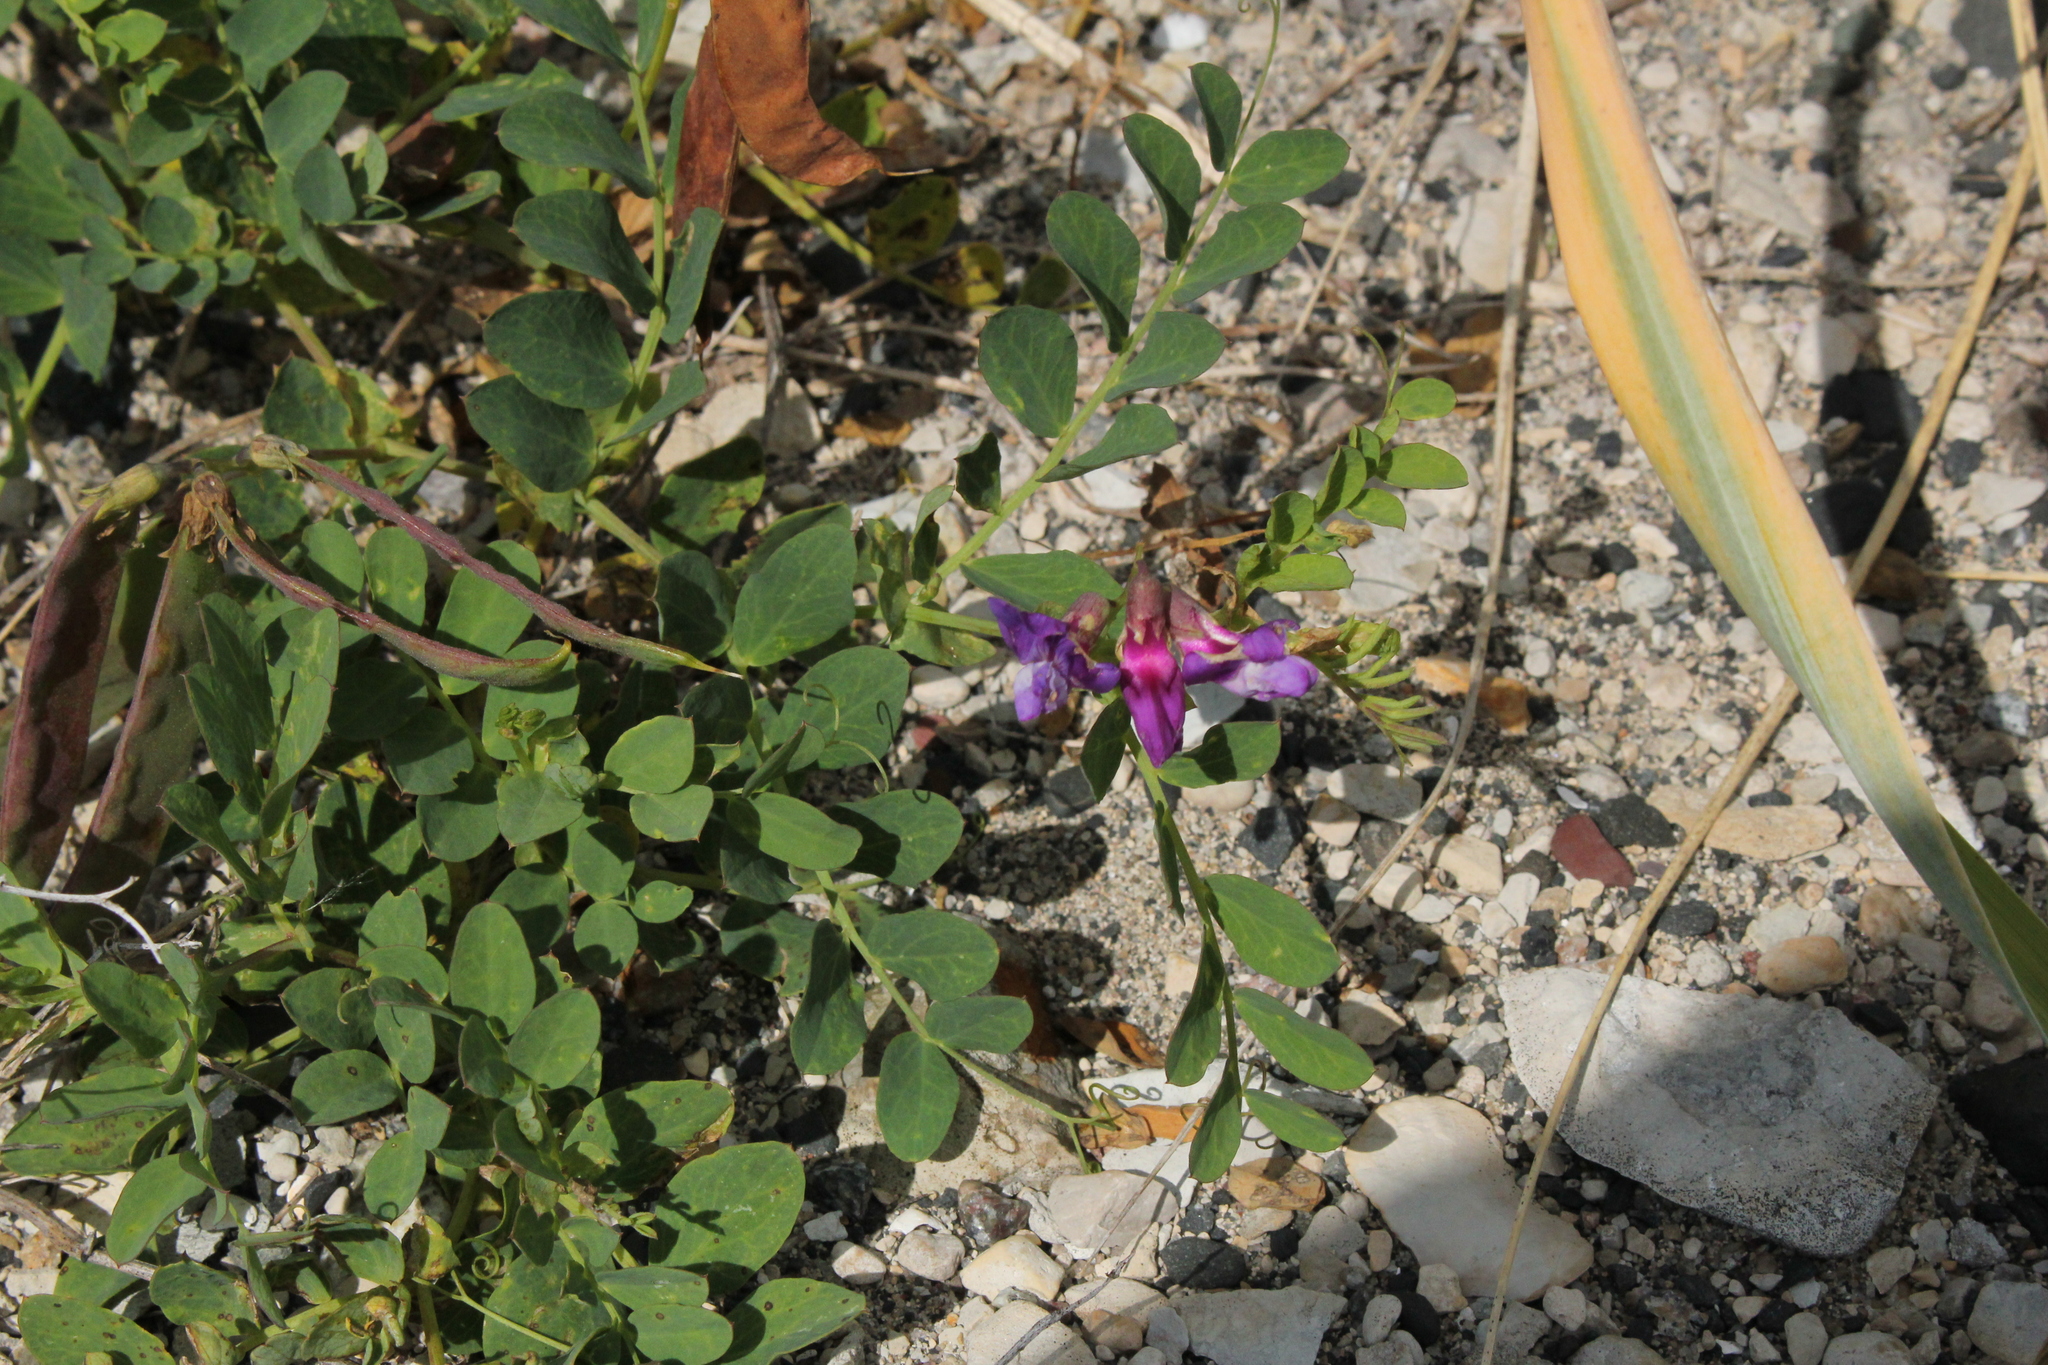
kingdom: Plantae
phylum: Tracheophyta
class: Magnoliopsida
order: Fabales
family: Fabaceae
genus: Lathyrus
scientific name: Lathyrus japonicus
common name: Sea pea
